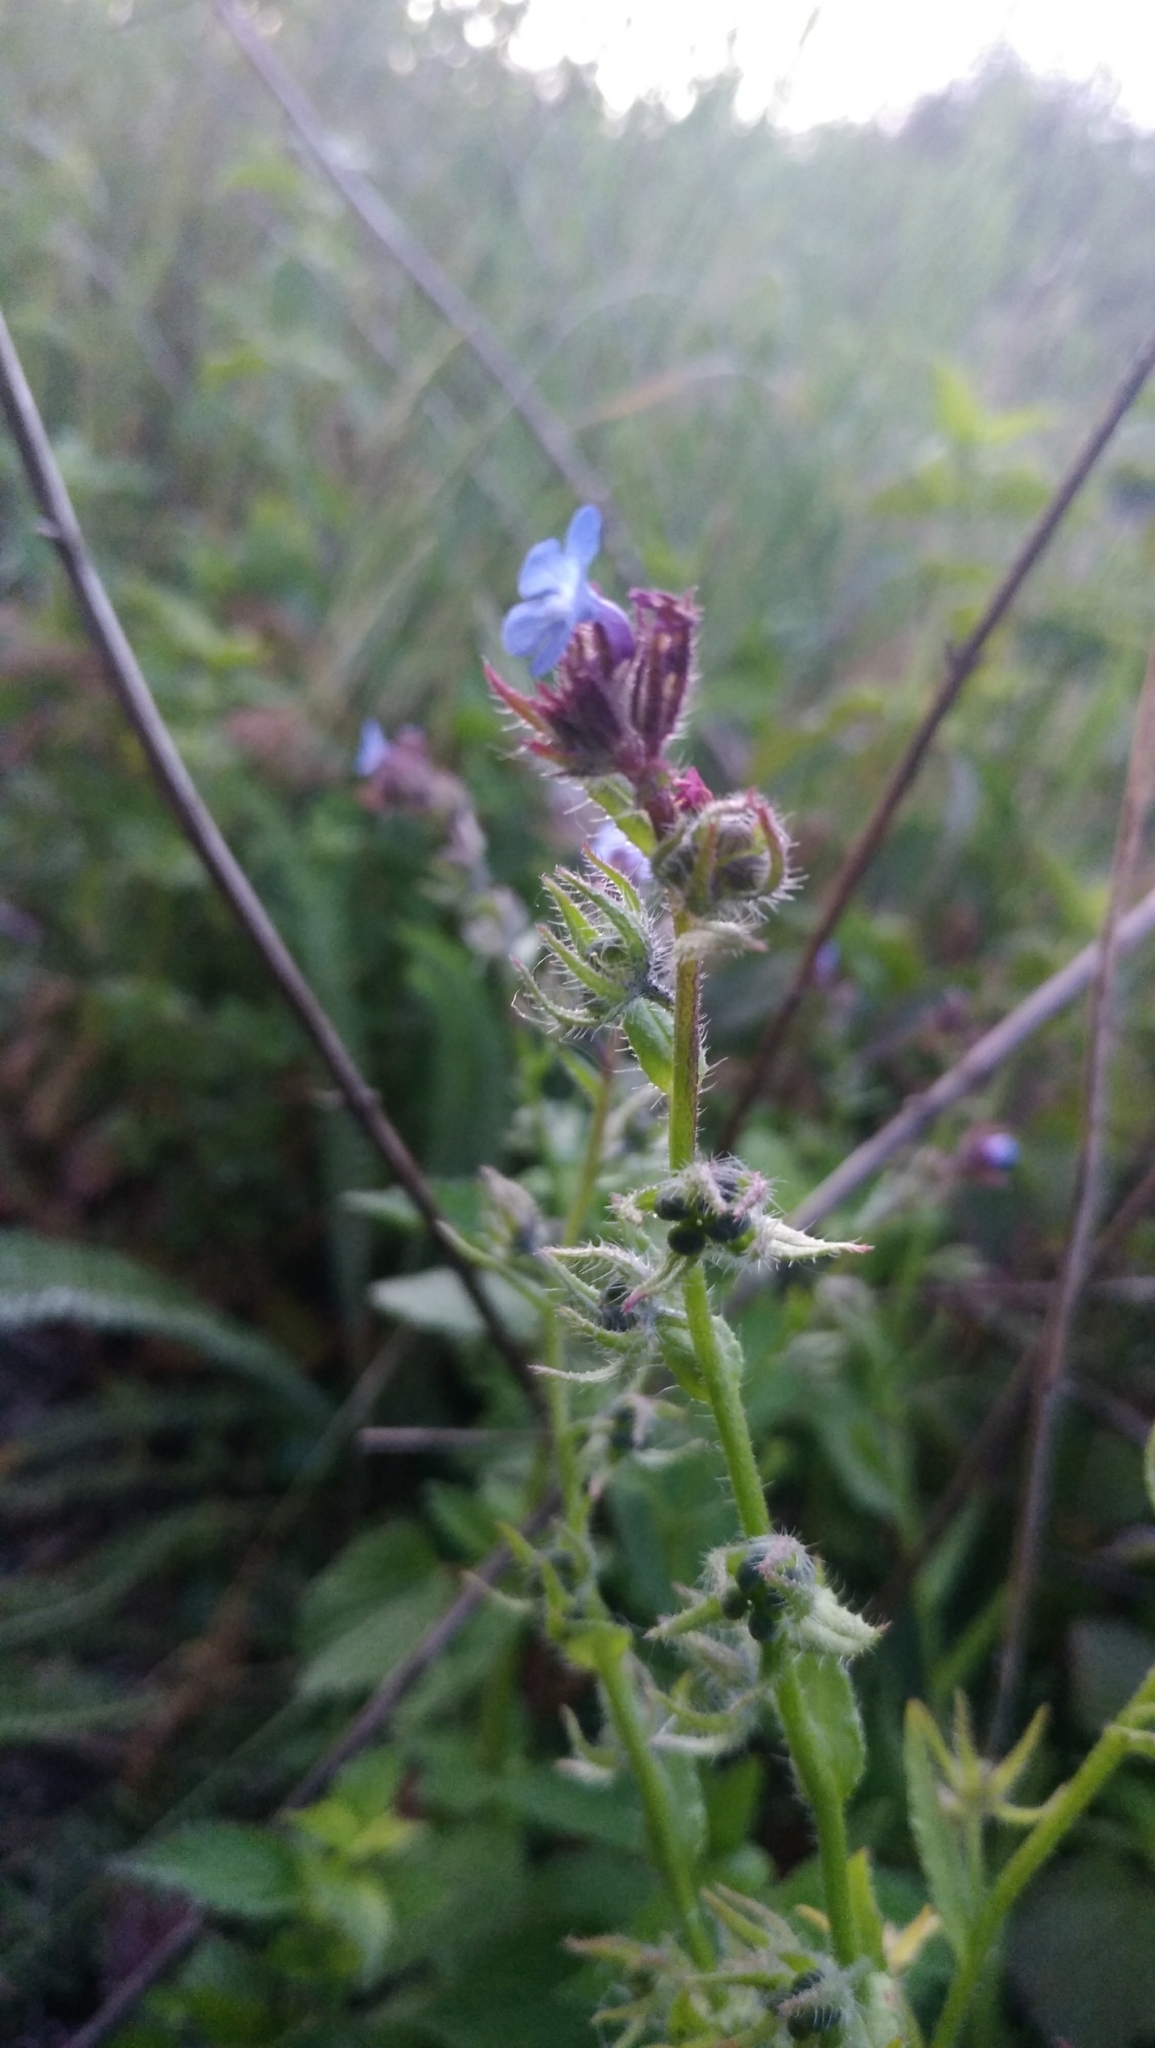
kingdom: Plantae
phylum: Tracheophyta
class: Magnoliopsida
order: Boraginales
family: Boraginaceae
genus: Lycopsis
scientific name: Lycopsis arvensis
